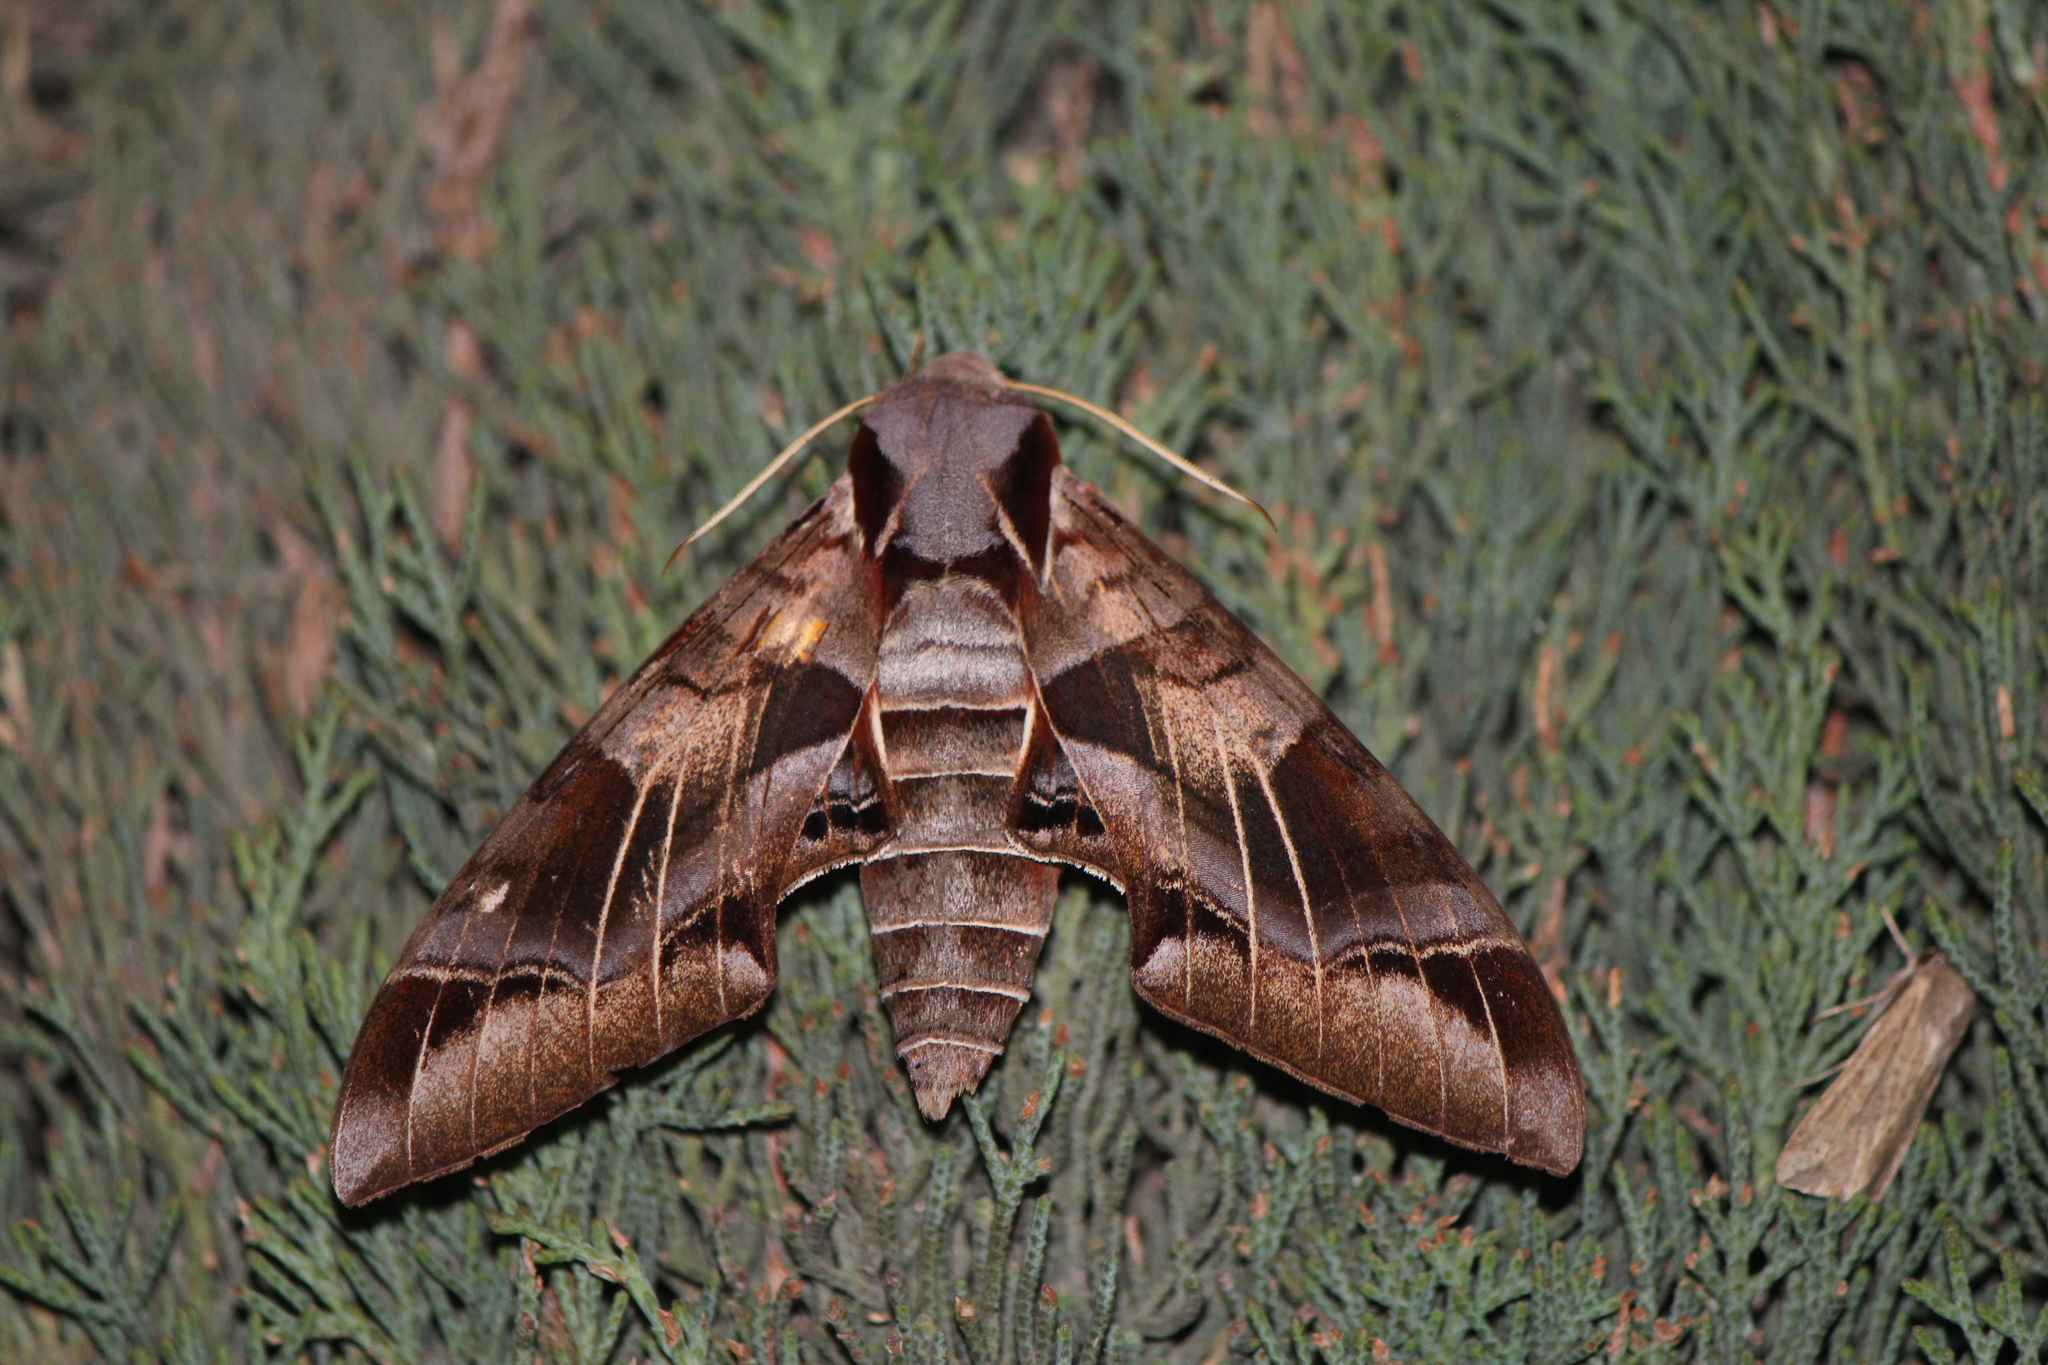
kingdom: Animalia
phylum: Arthropoda
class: Insecta
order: Lepidoptera
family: Sphingidae
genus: Eumorpha
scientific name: Eumorpha typhon
